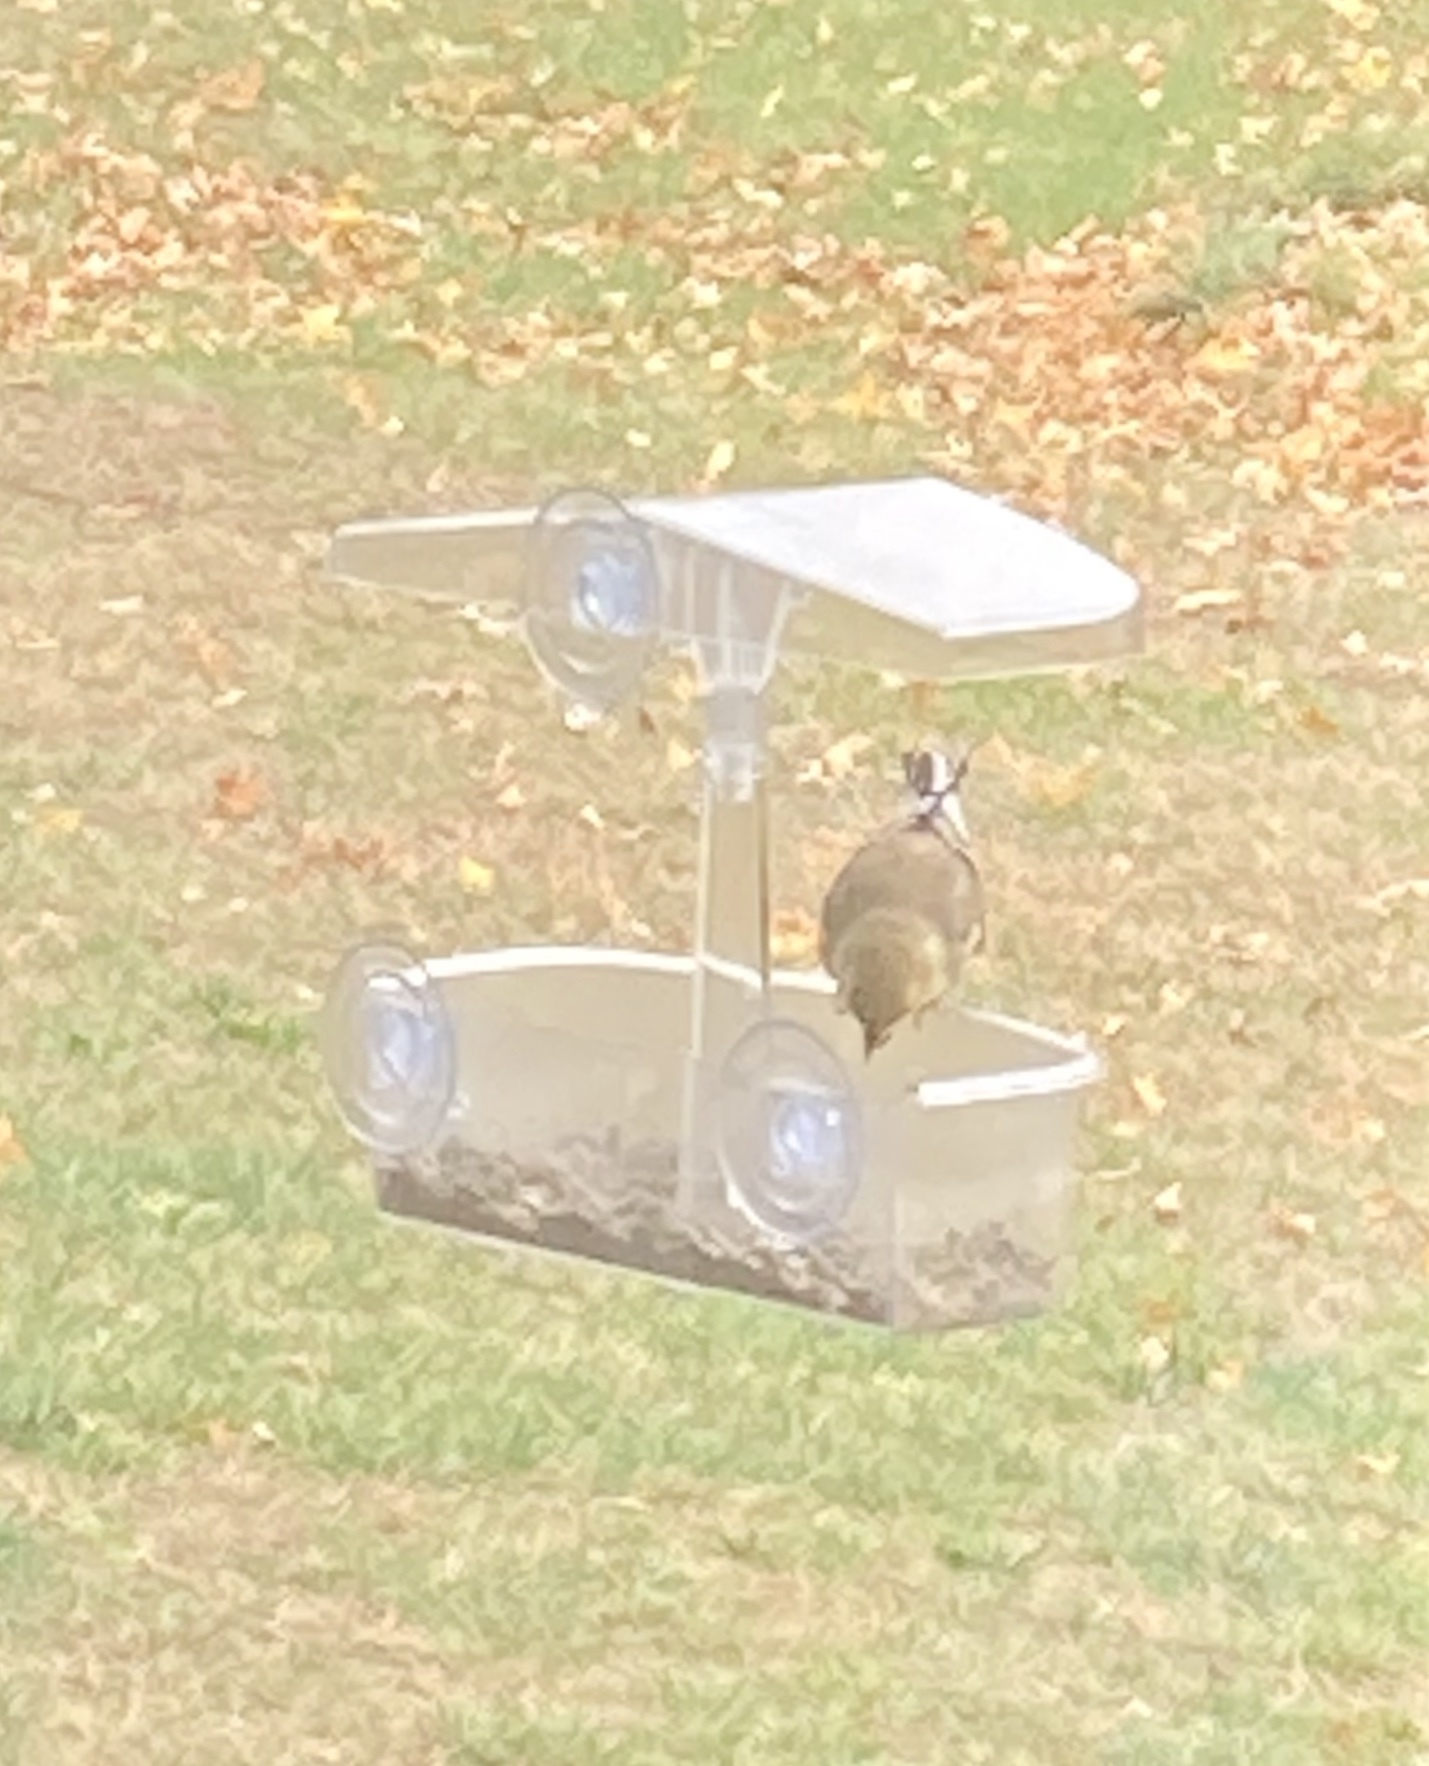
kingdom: Animalia
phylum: Chordata
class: Aves
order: Passeriformes
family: Fringillidae
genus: Spinus
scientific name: Spinus tristis
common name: American goldfinch
